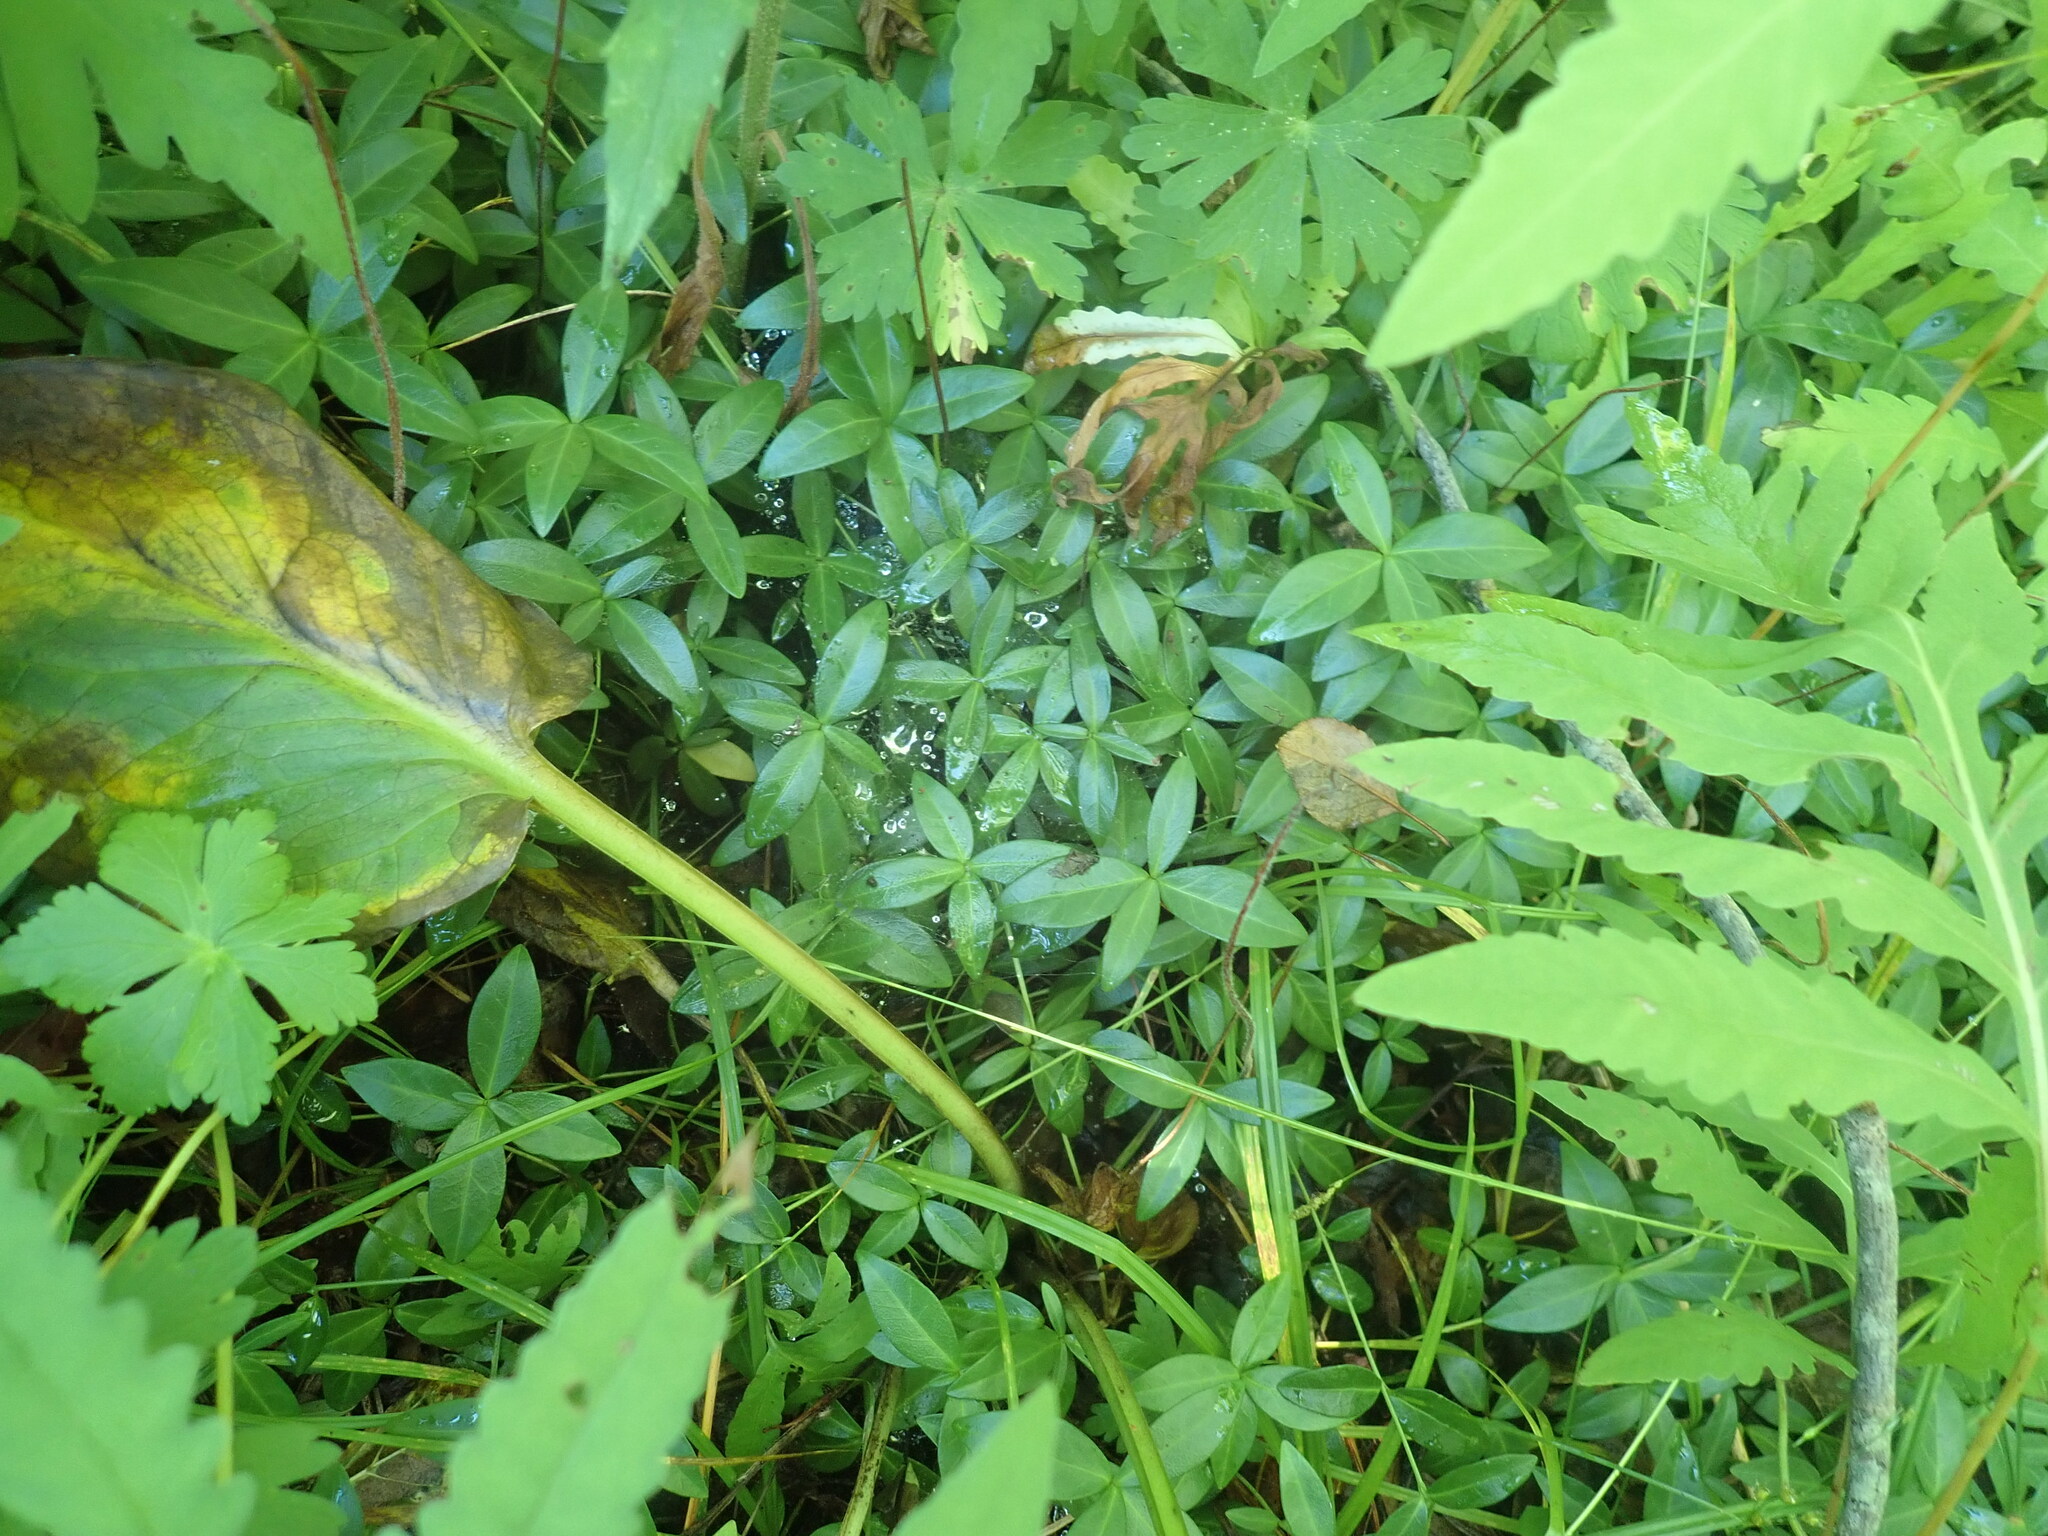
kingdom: Plantae
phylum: Tracheophyta
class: Magnoliopsida
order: Gentianales
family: Apocynaceae
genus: Vinca
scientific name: Vinca minor
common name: Lesser periwinkle
